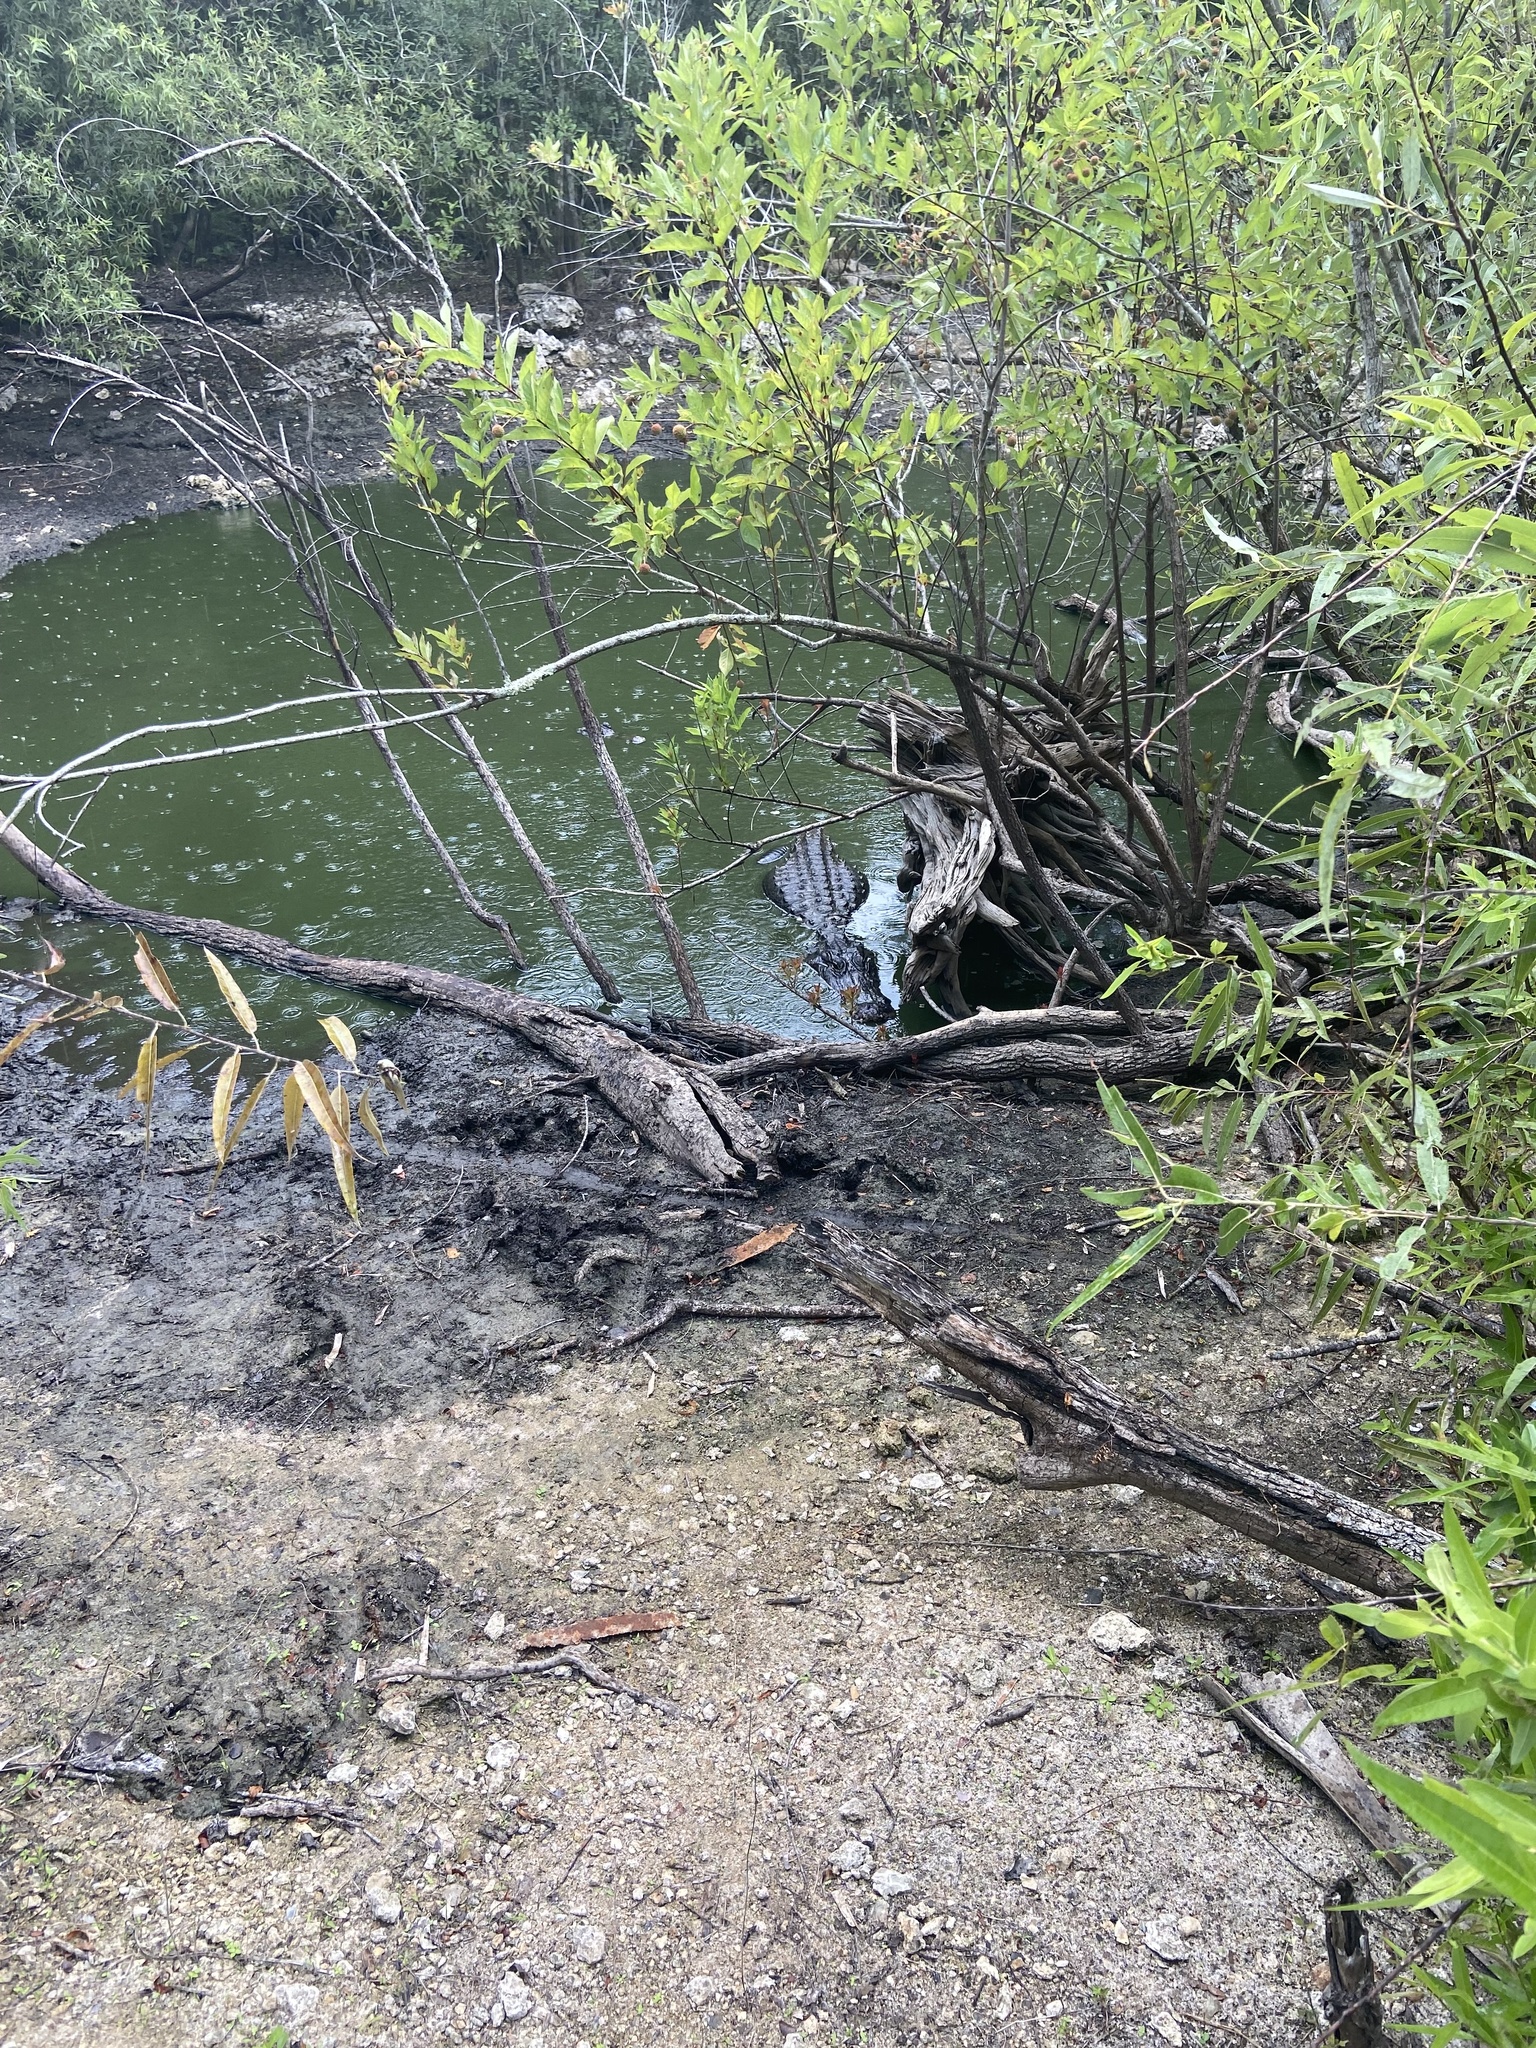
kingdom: Animalia
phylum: Chordata
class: Crocodylia
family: Alligatoridae
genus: Alligator
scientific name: Alligator mississippiensis
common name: American alligator
